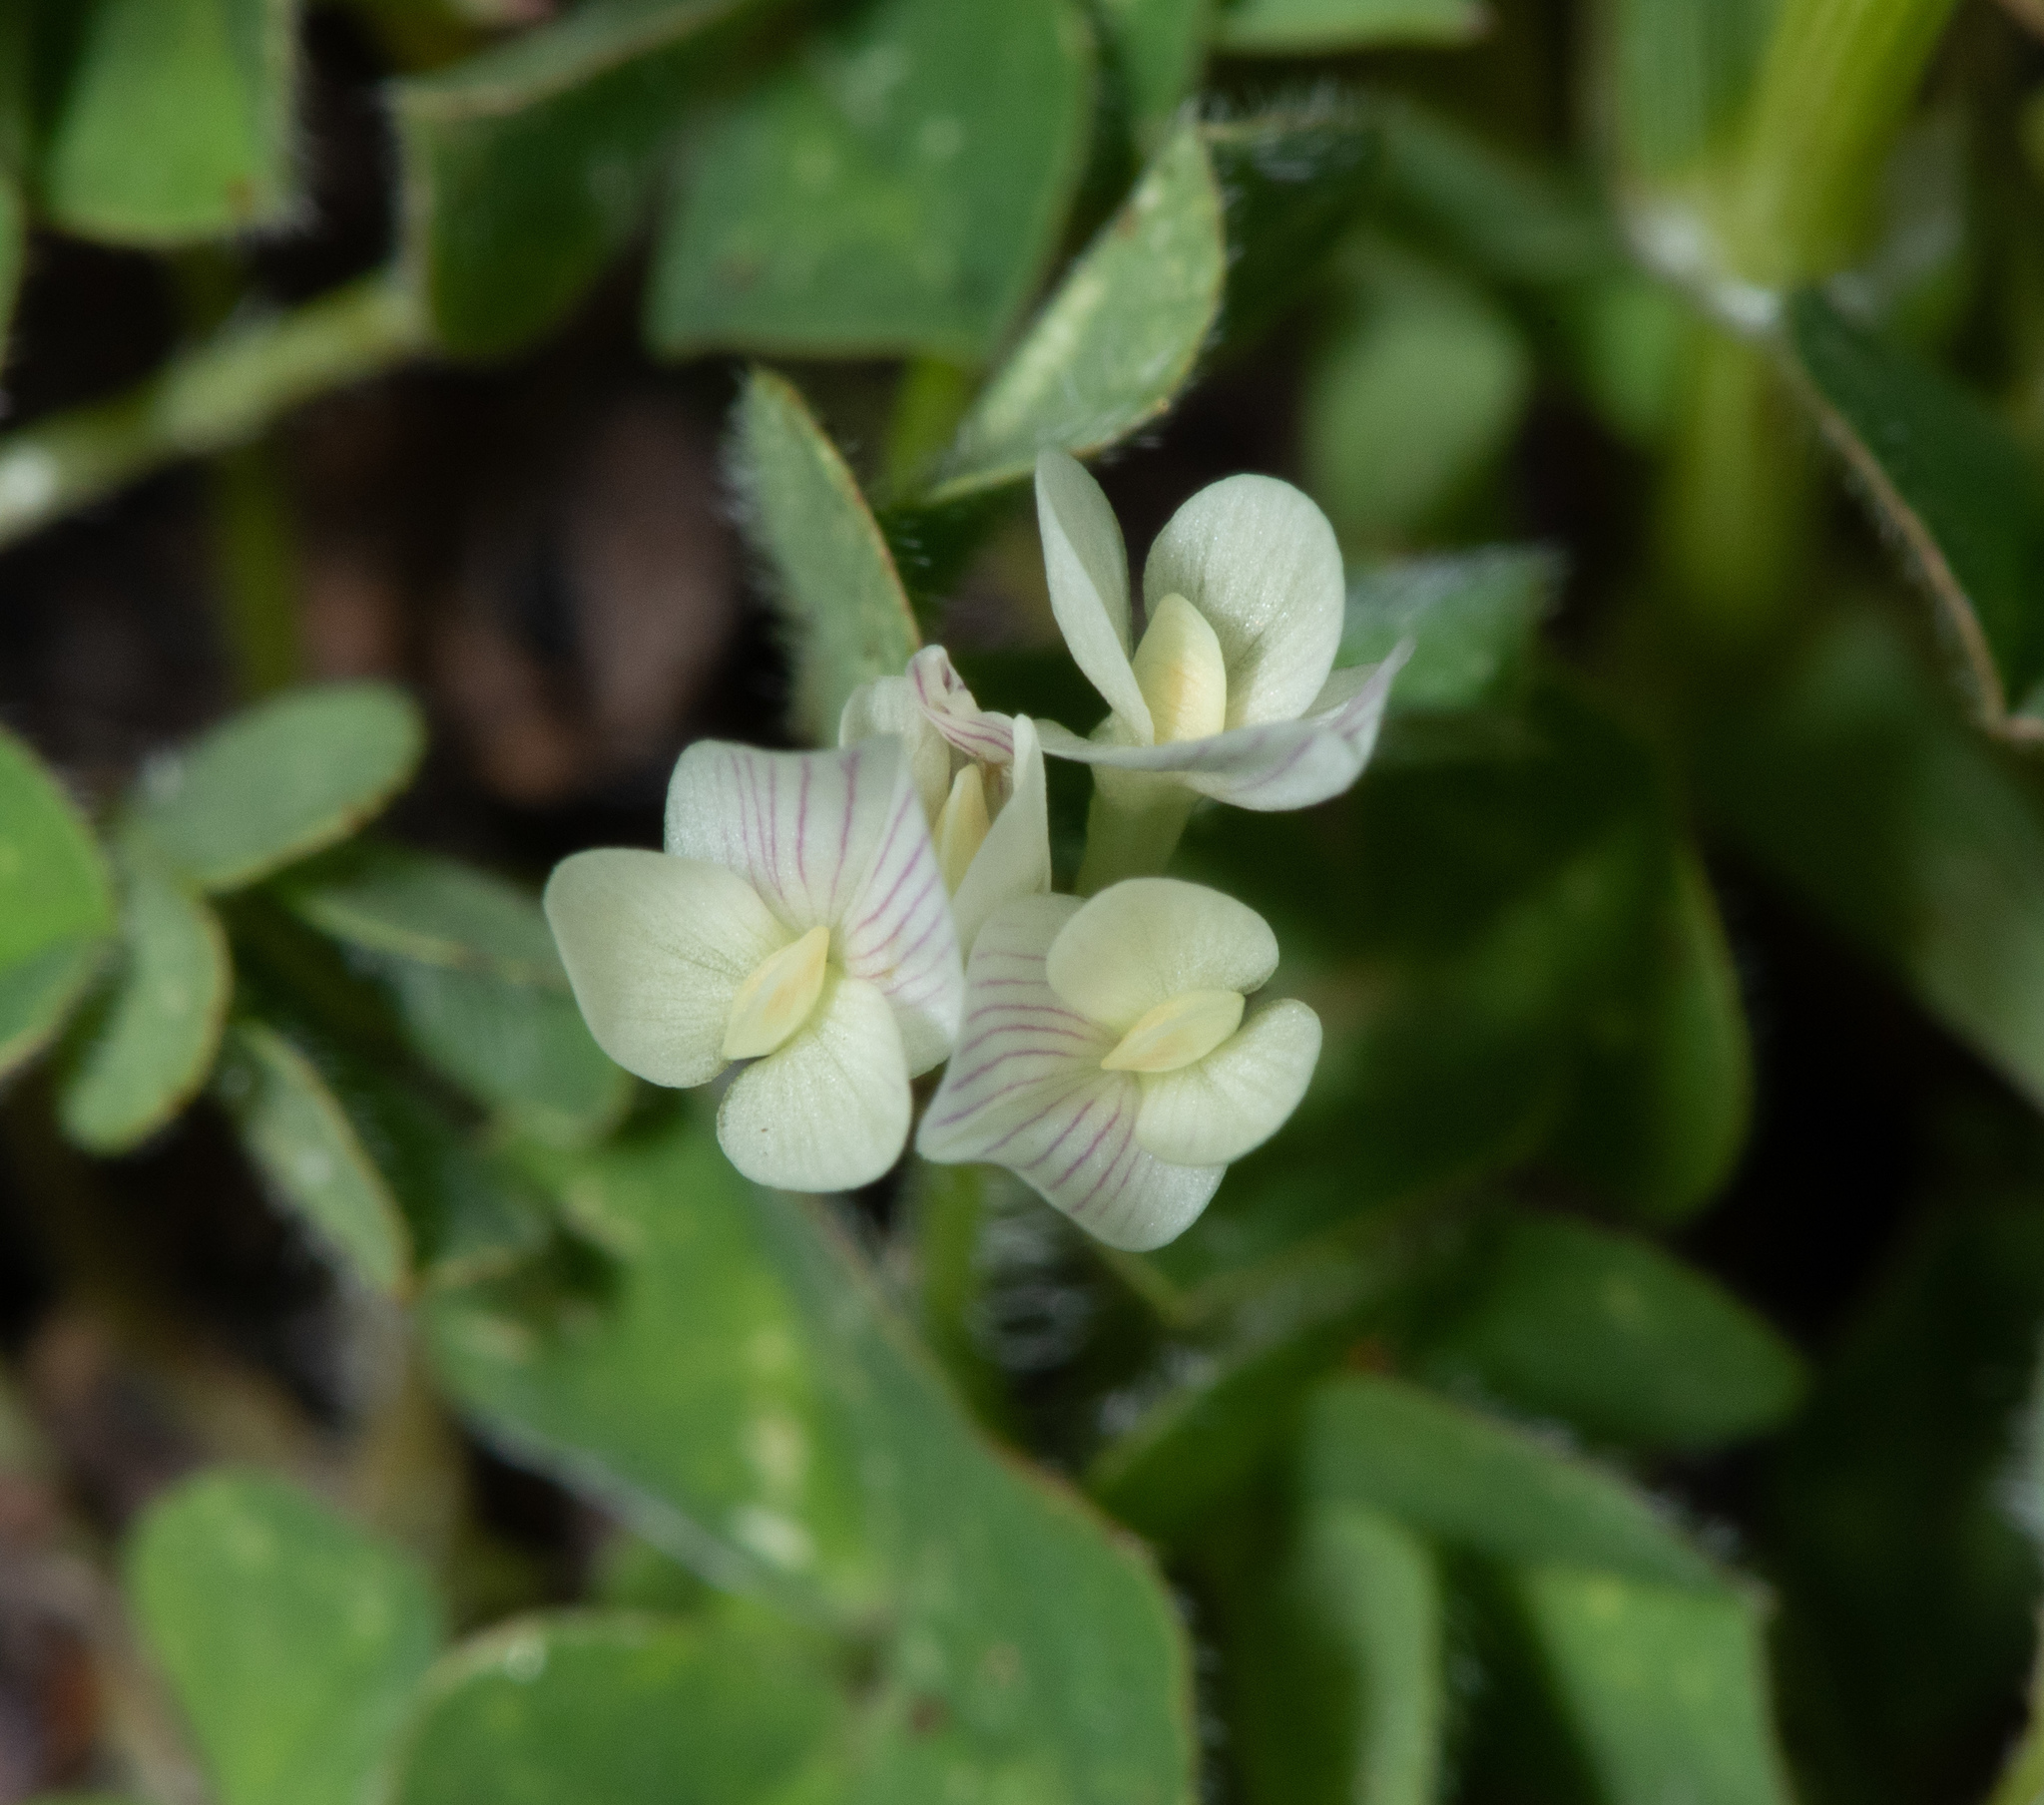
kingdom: Plantae
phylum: Tracheophyta
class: Magnoliopsida
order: Fabales
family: Fabaceae
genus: Trifolium
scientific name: Trifolium subterraneum
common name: Subterranean clover
